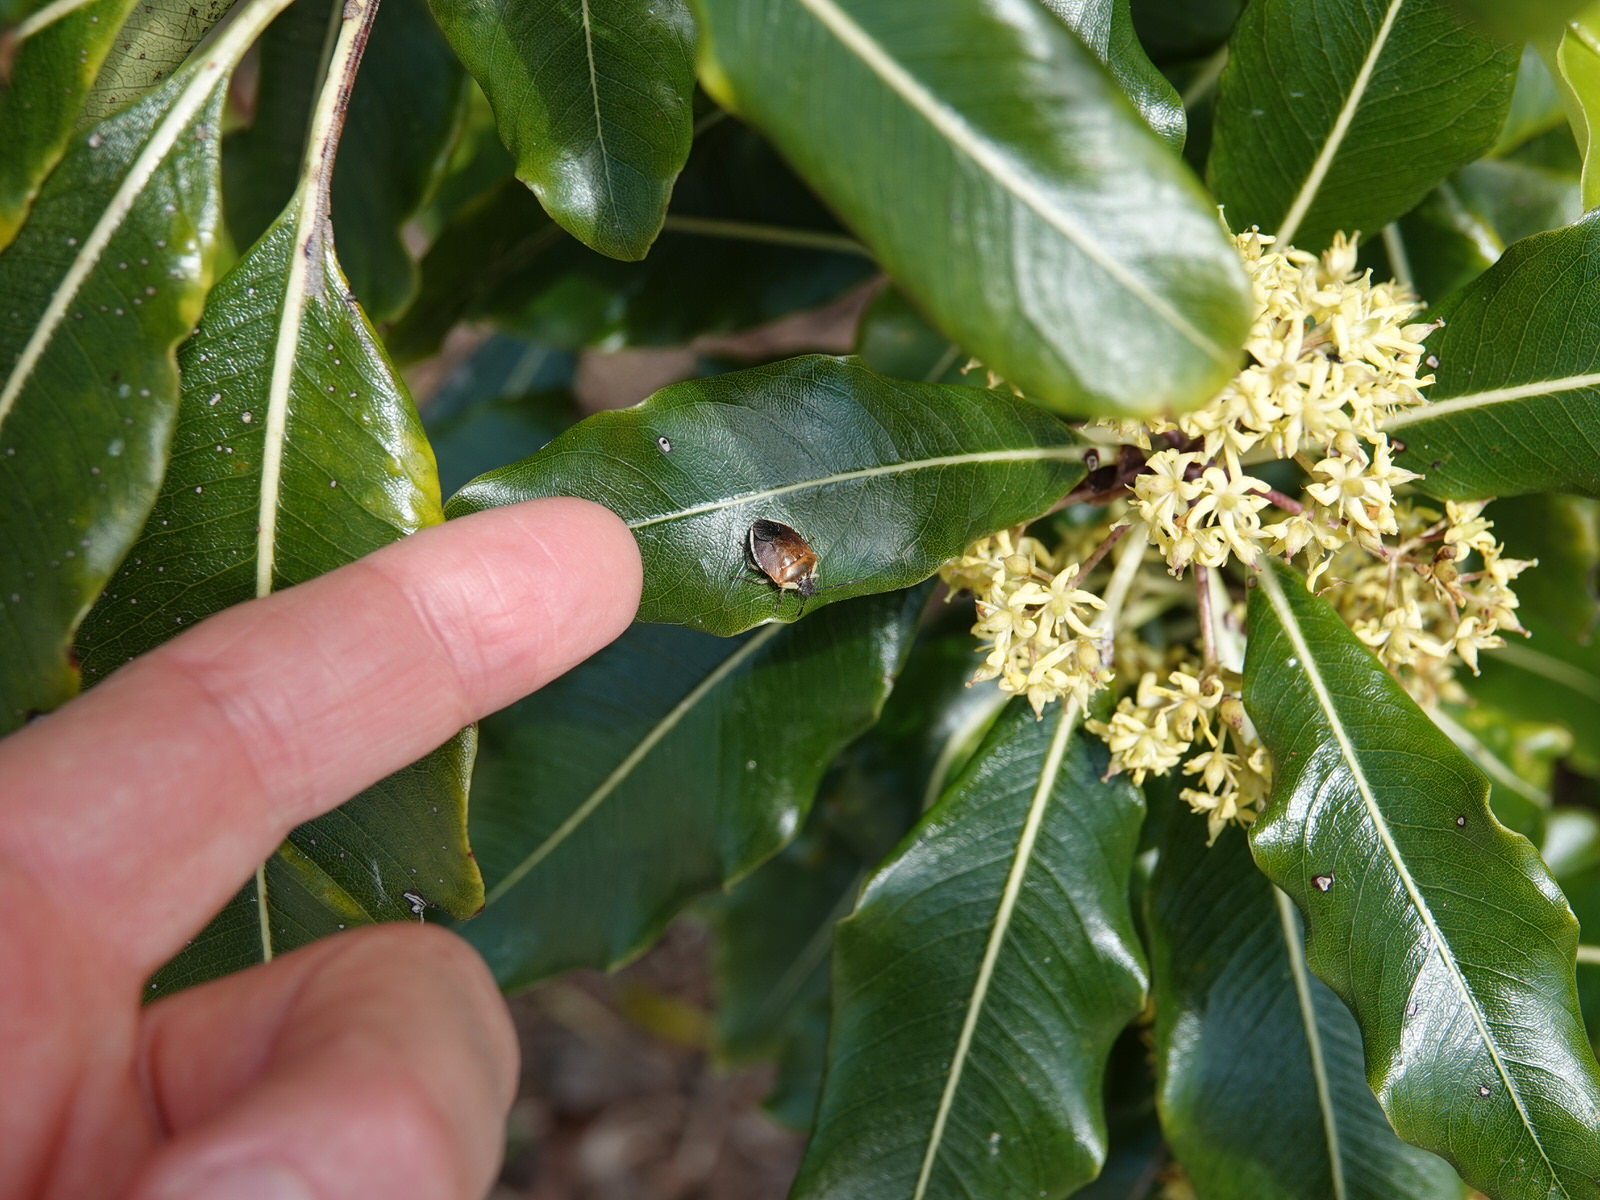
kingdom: Animalia
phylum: Arthropoda
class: Insecta
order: Hemiptera
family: Pentatomidae
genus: Monteithiella
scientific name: Monteithiella
